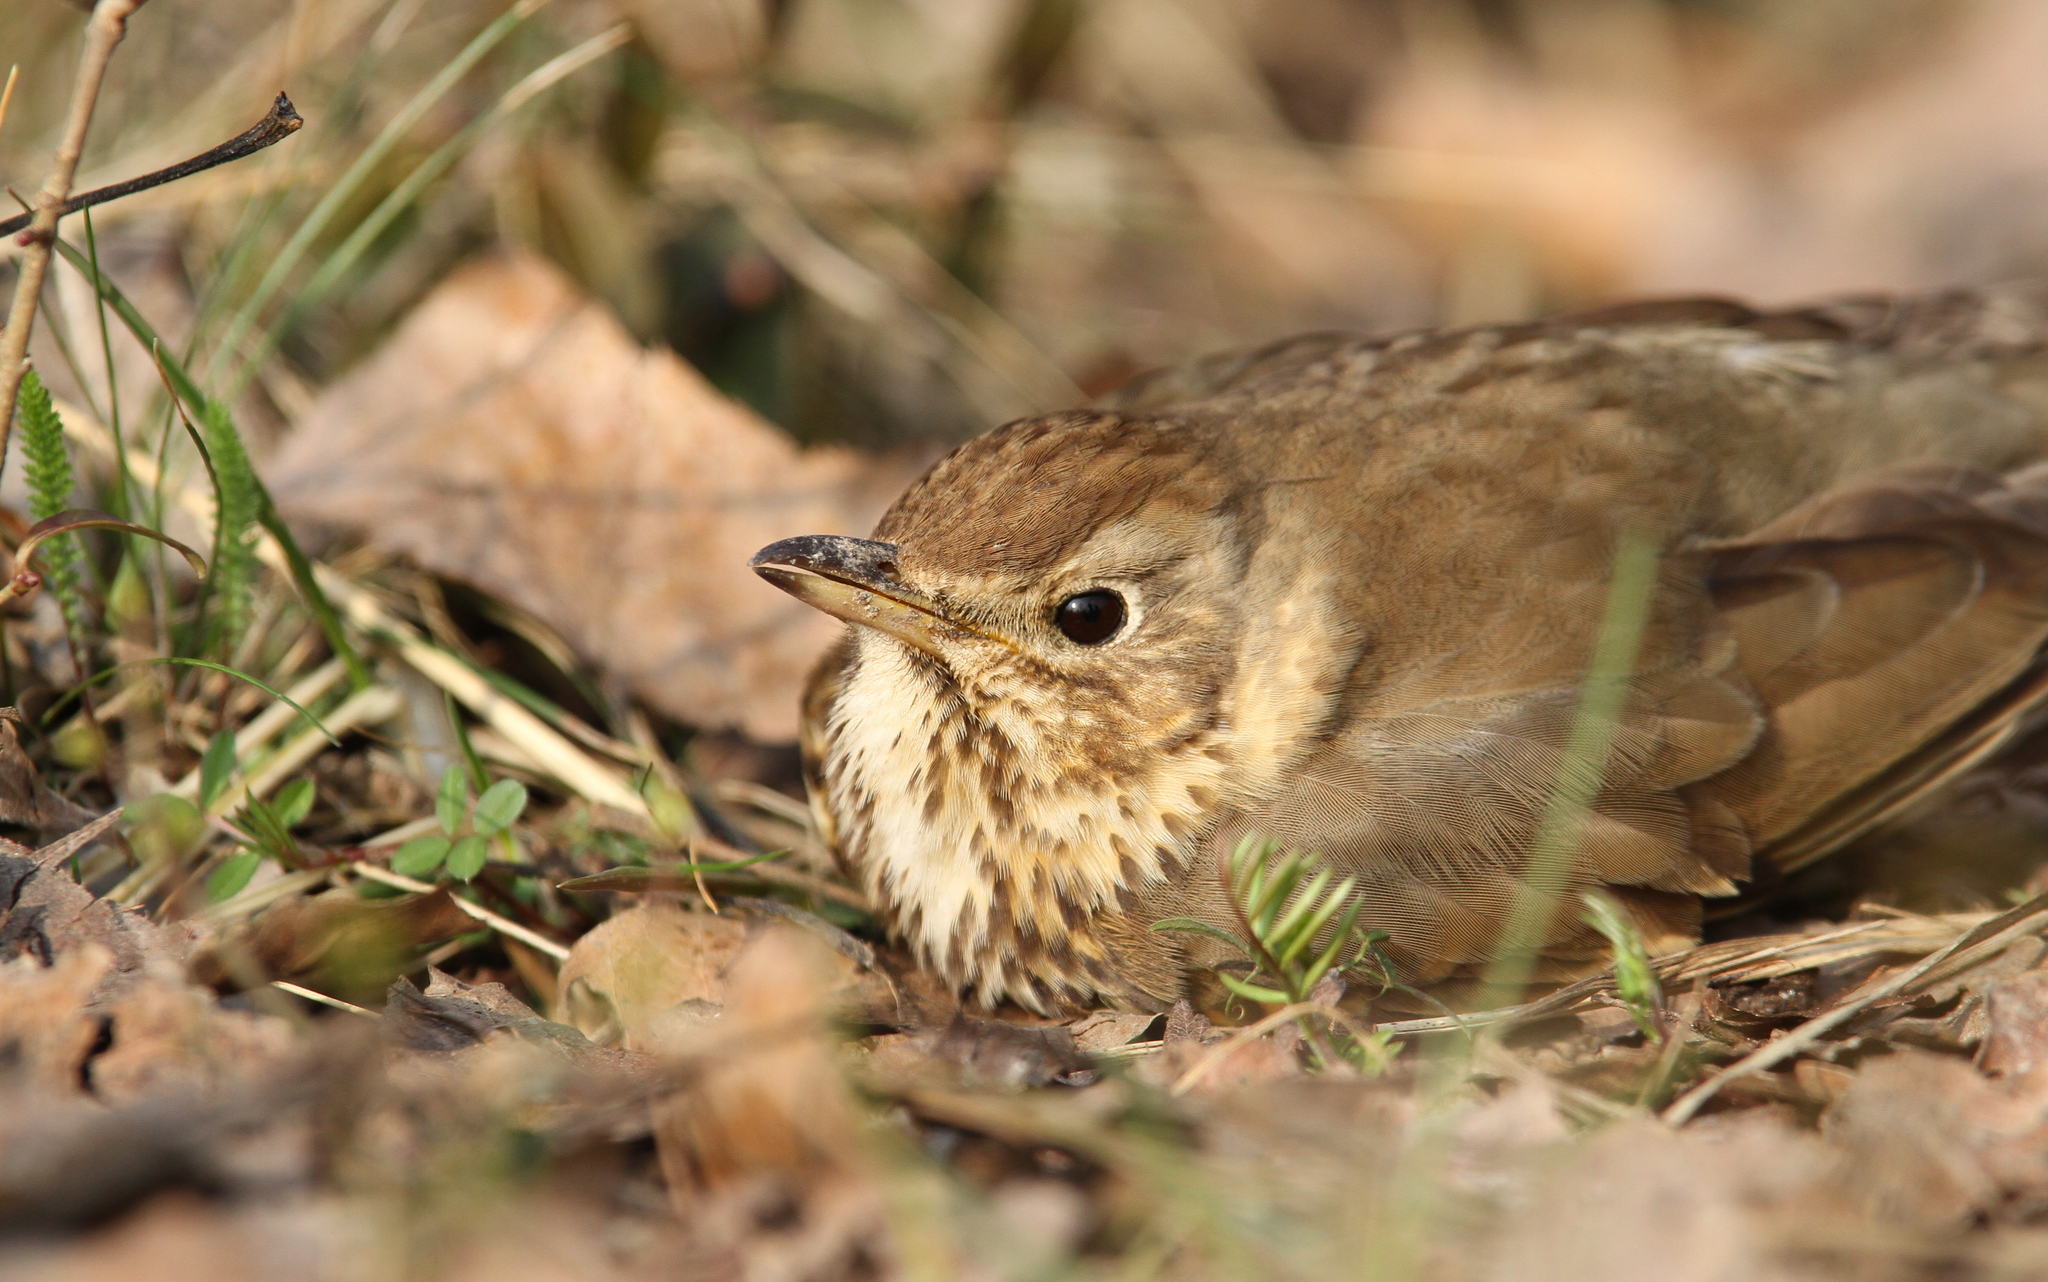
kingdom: Animalia
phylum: Chordata
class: Aves
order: Passeriformes
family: Turdidae
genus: Turdus
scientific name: Turdus philomelos
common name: Song thrush
